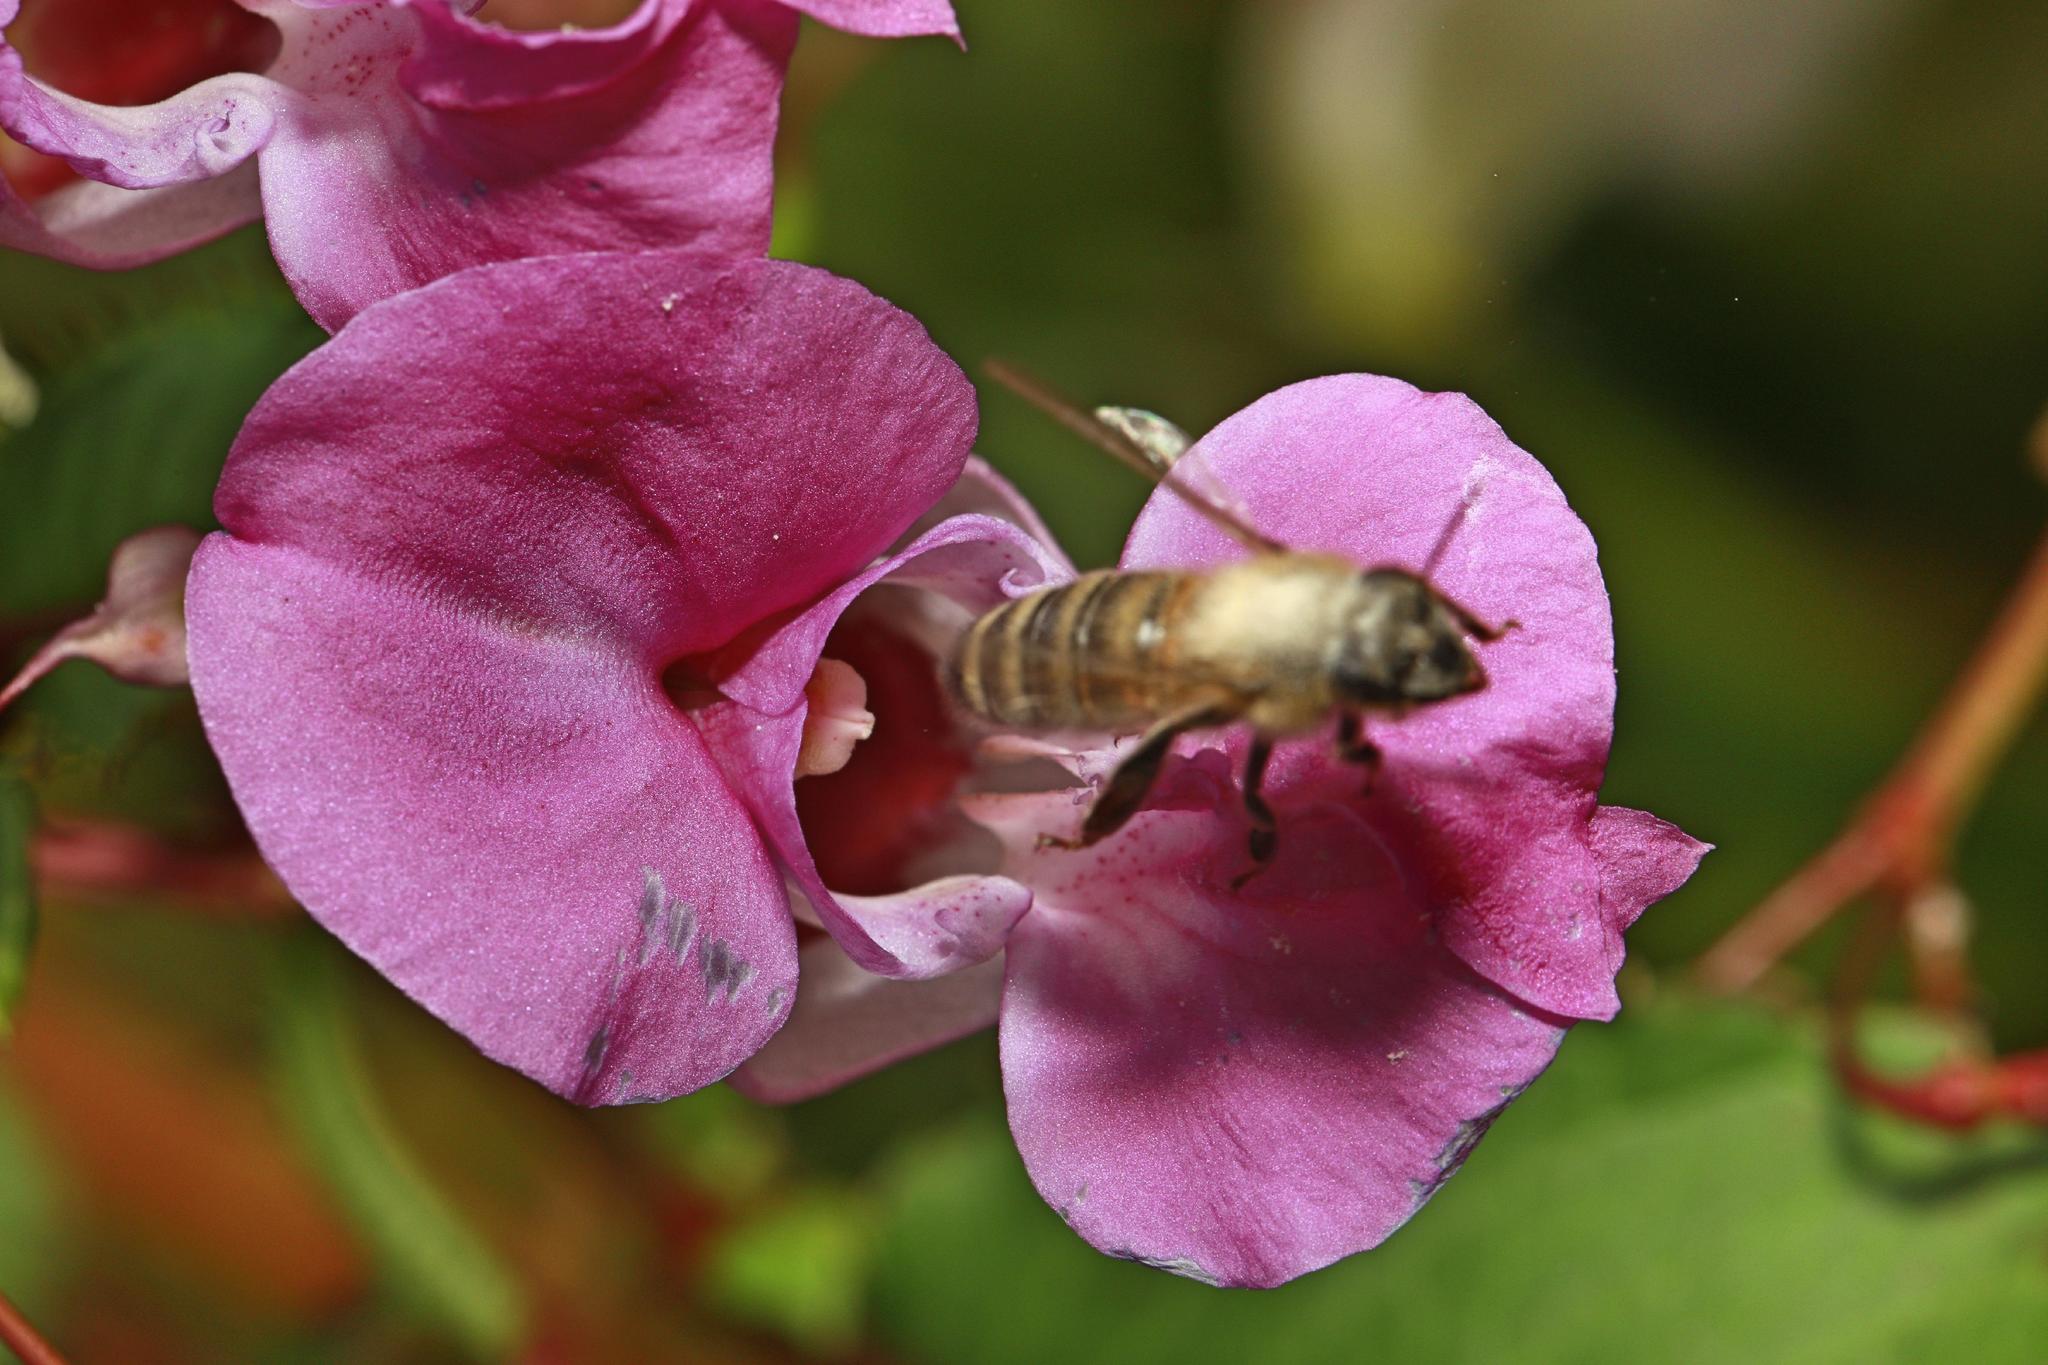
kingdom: Animalia
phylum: Arthropoda
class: Insecta
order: Hymenoptera
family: Apidae
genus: Apis
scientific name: Apis mellifera
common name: Honey bee
